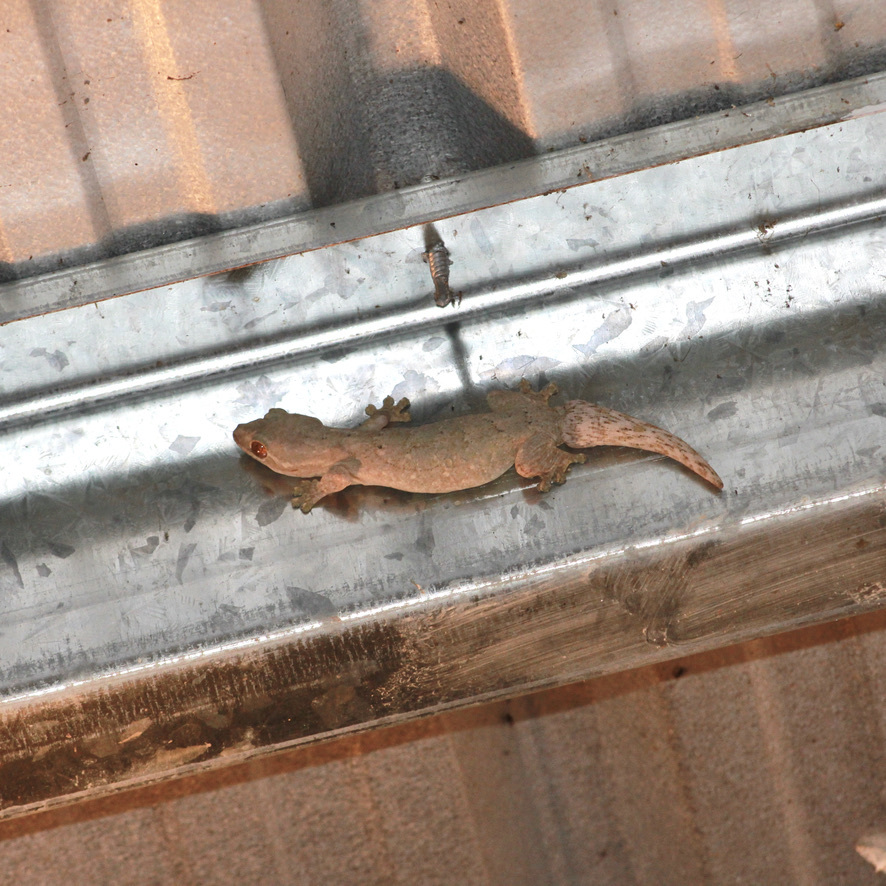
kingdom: Animalia
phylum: Chordata
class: Squamata
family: Phyllodactylidae
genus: Thecadactylus
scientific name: Thecadactylus rapicauda
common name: Turnip-tailed gecko
